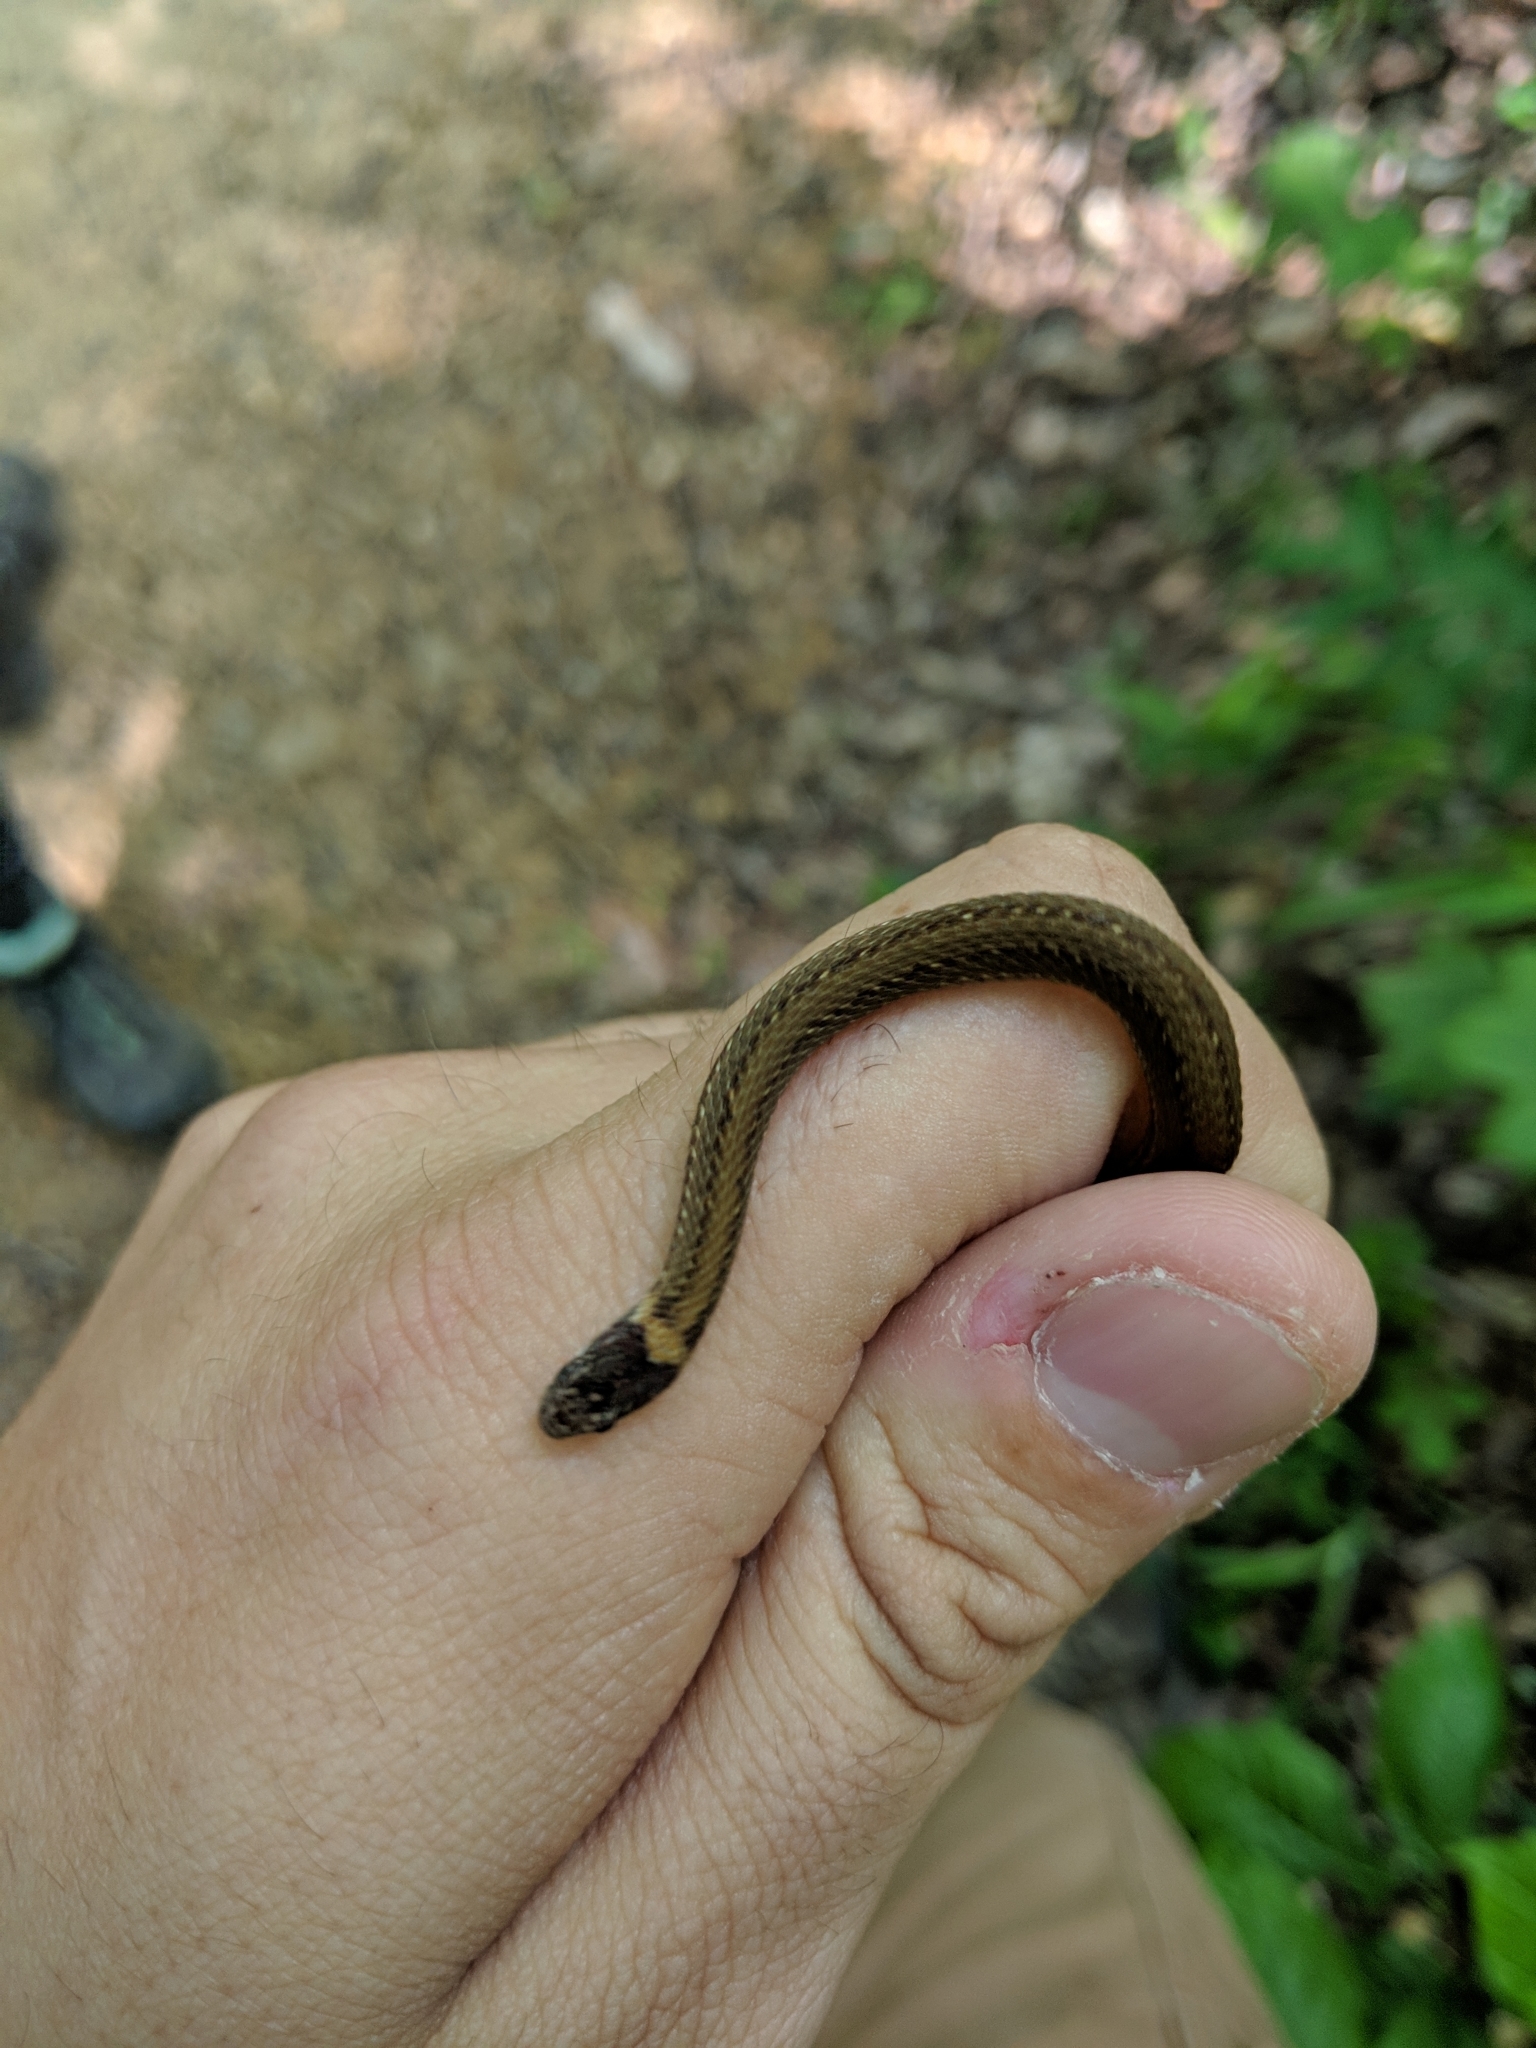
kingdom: Animalia
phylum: Chordata
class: Squamata
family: Colubridae
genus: Storeria
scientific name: Storeria occipitomaculata
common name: Redbelly snake
